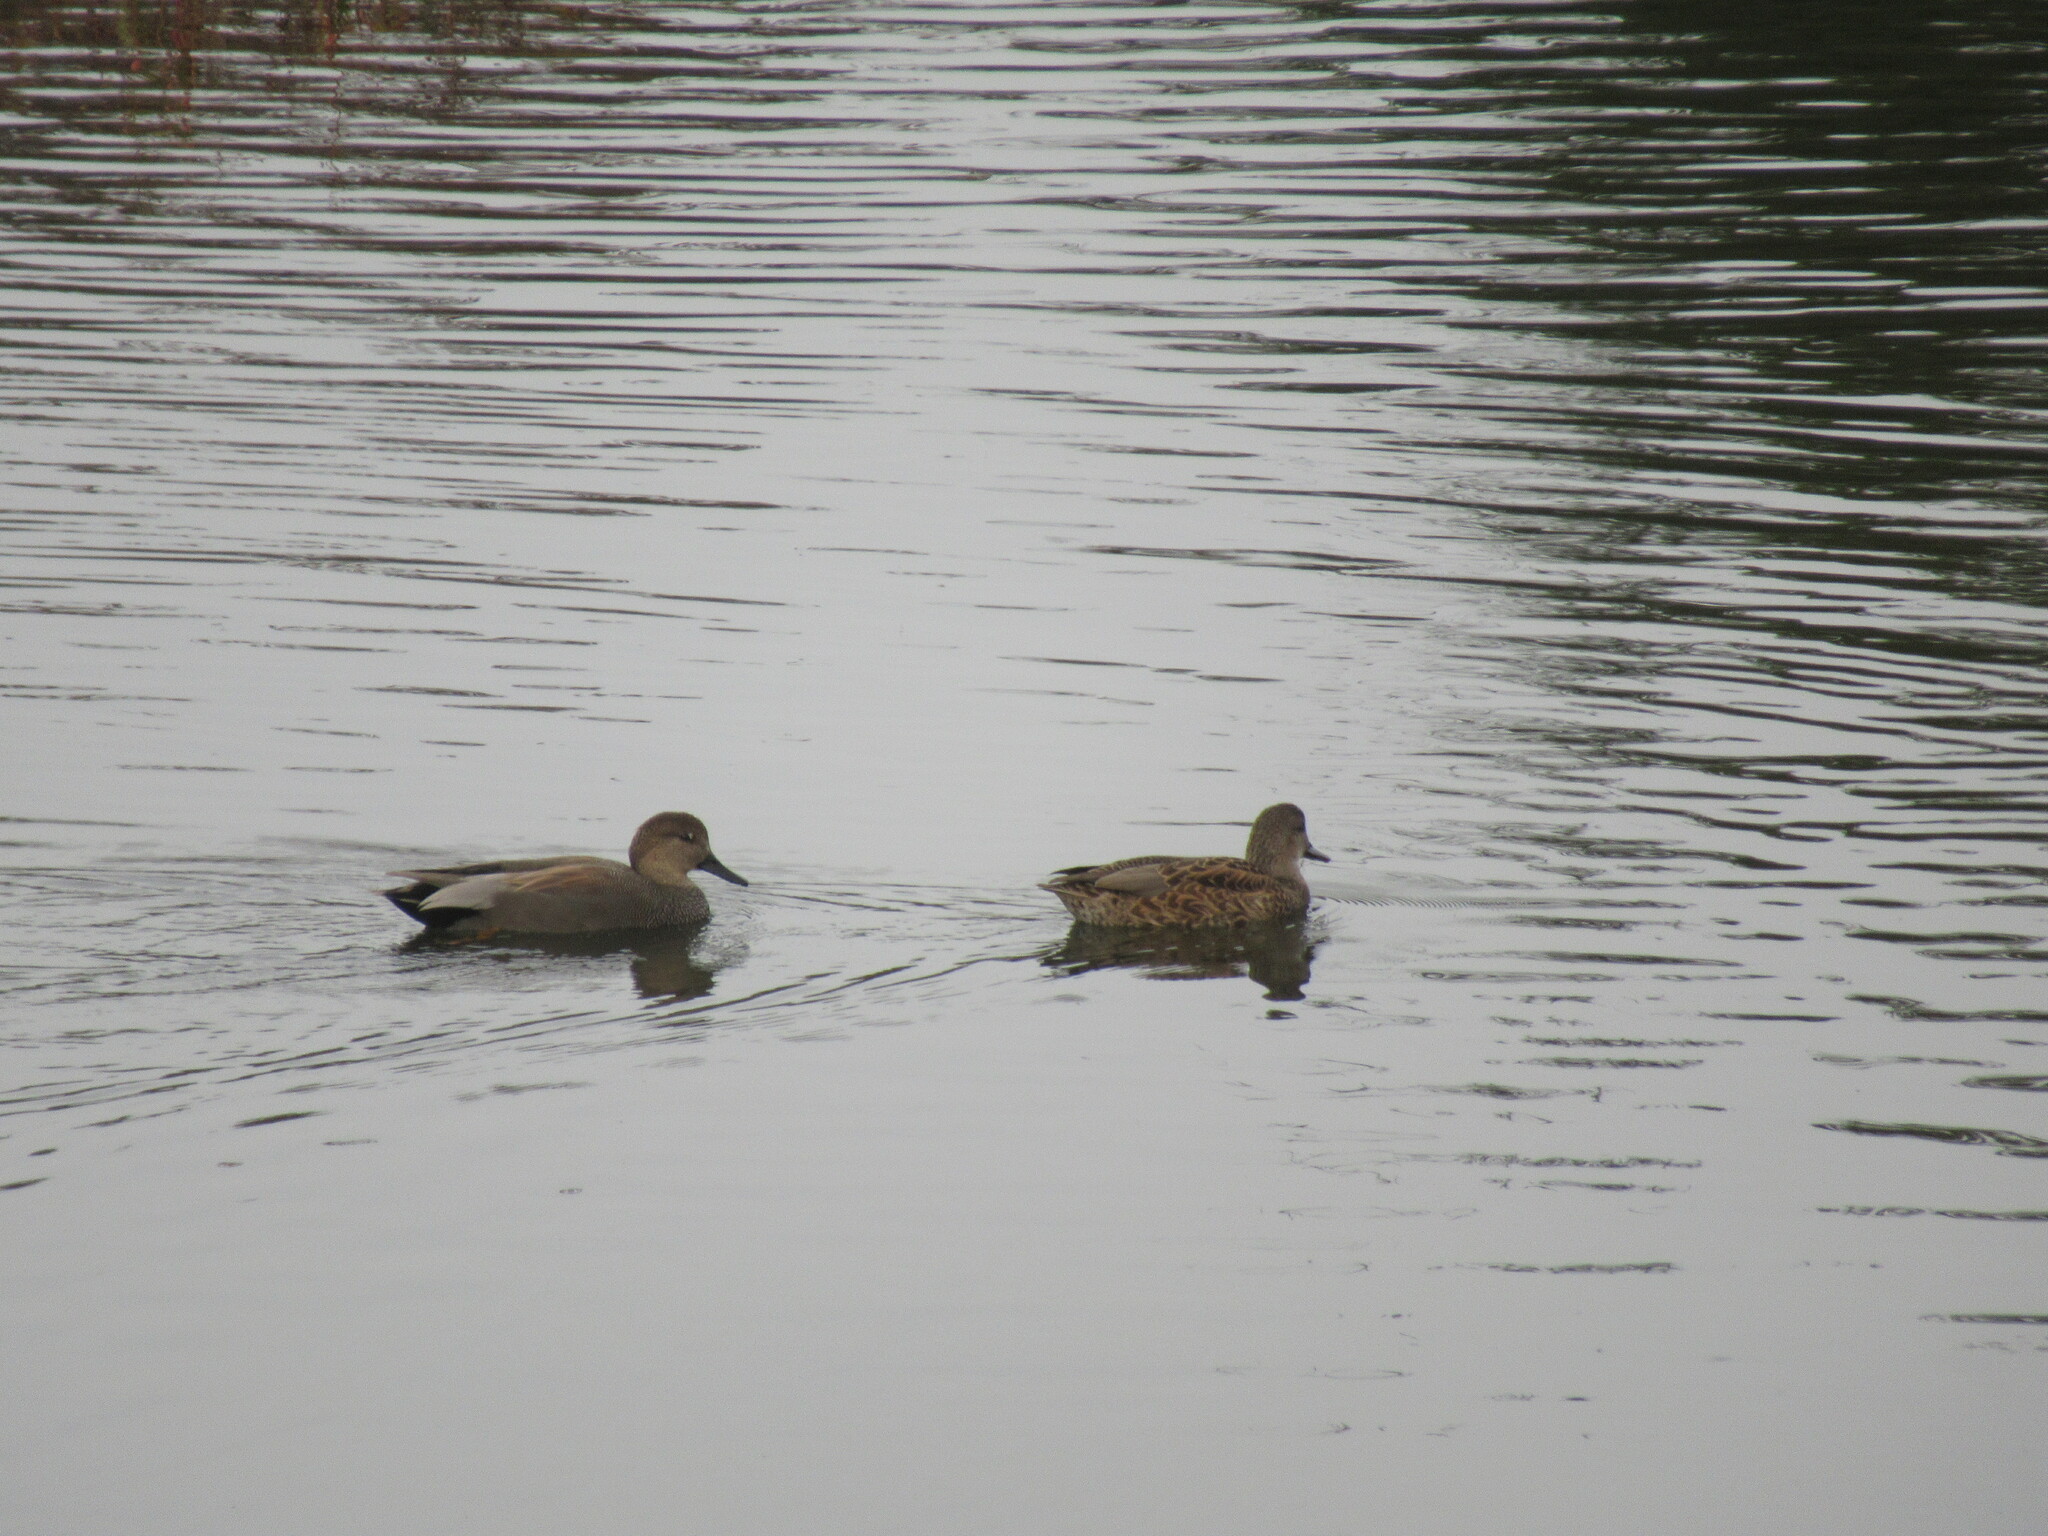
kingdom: Animalia
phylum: Chordata
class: Aves
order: Anseriformes
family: Anatidae
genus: Mareca
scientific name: Mareca strepera
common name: Gadwall
